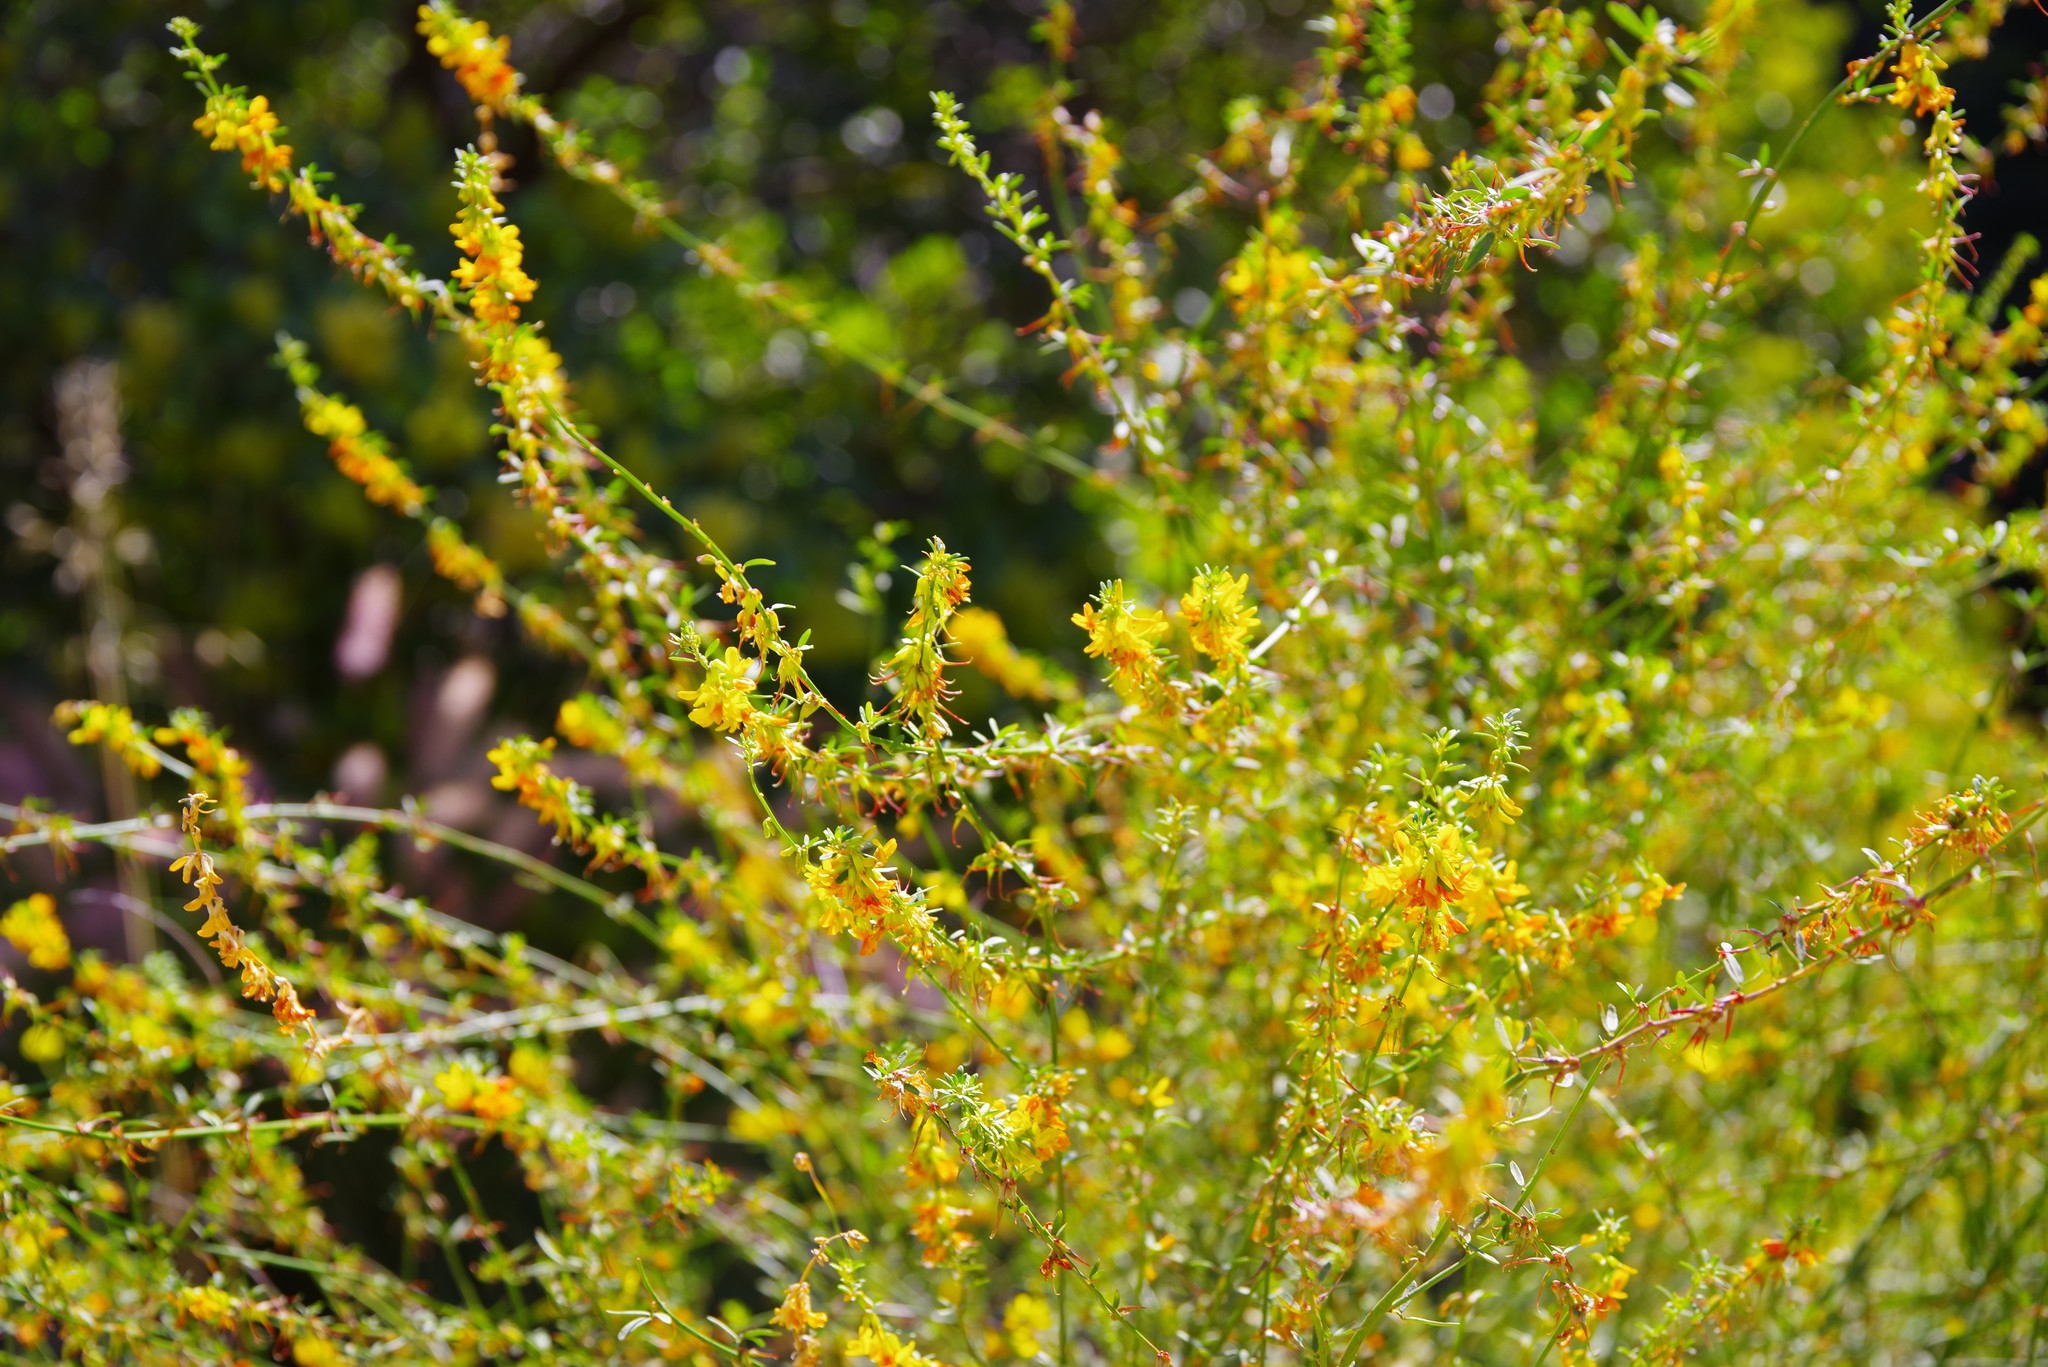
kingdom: Plantae
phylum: Tracheophyta
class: Magnoliopsida
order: Fabales
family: Fabaceae
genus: Acmispon
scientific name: Acmispon glaber
